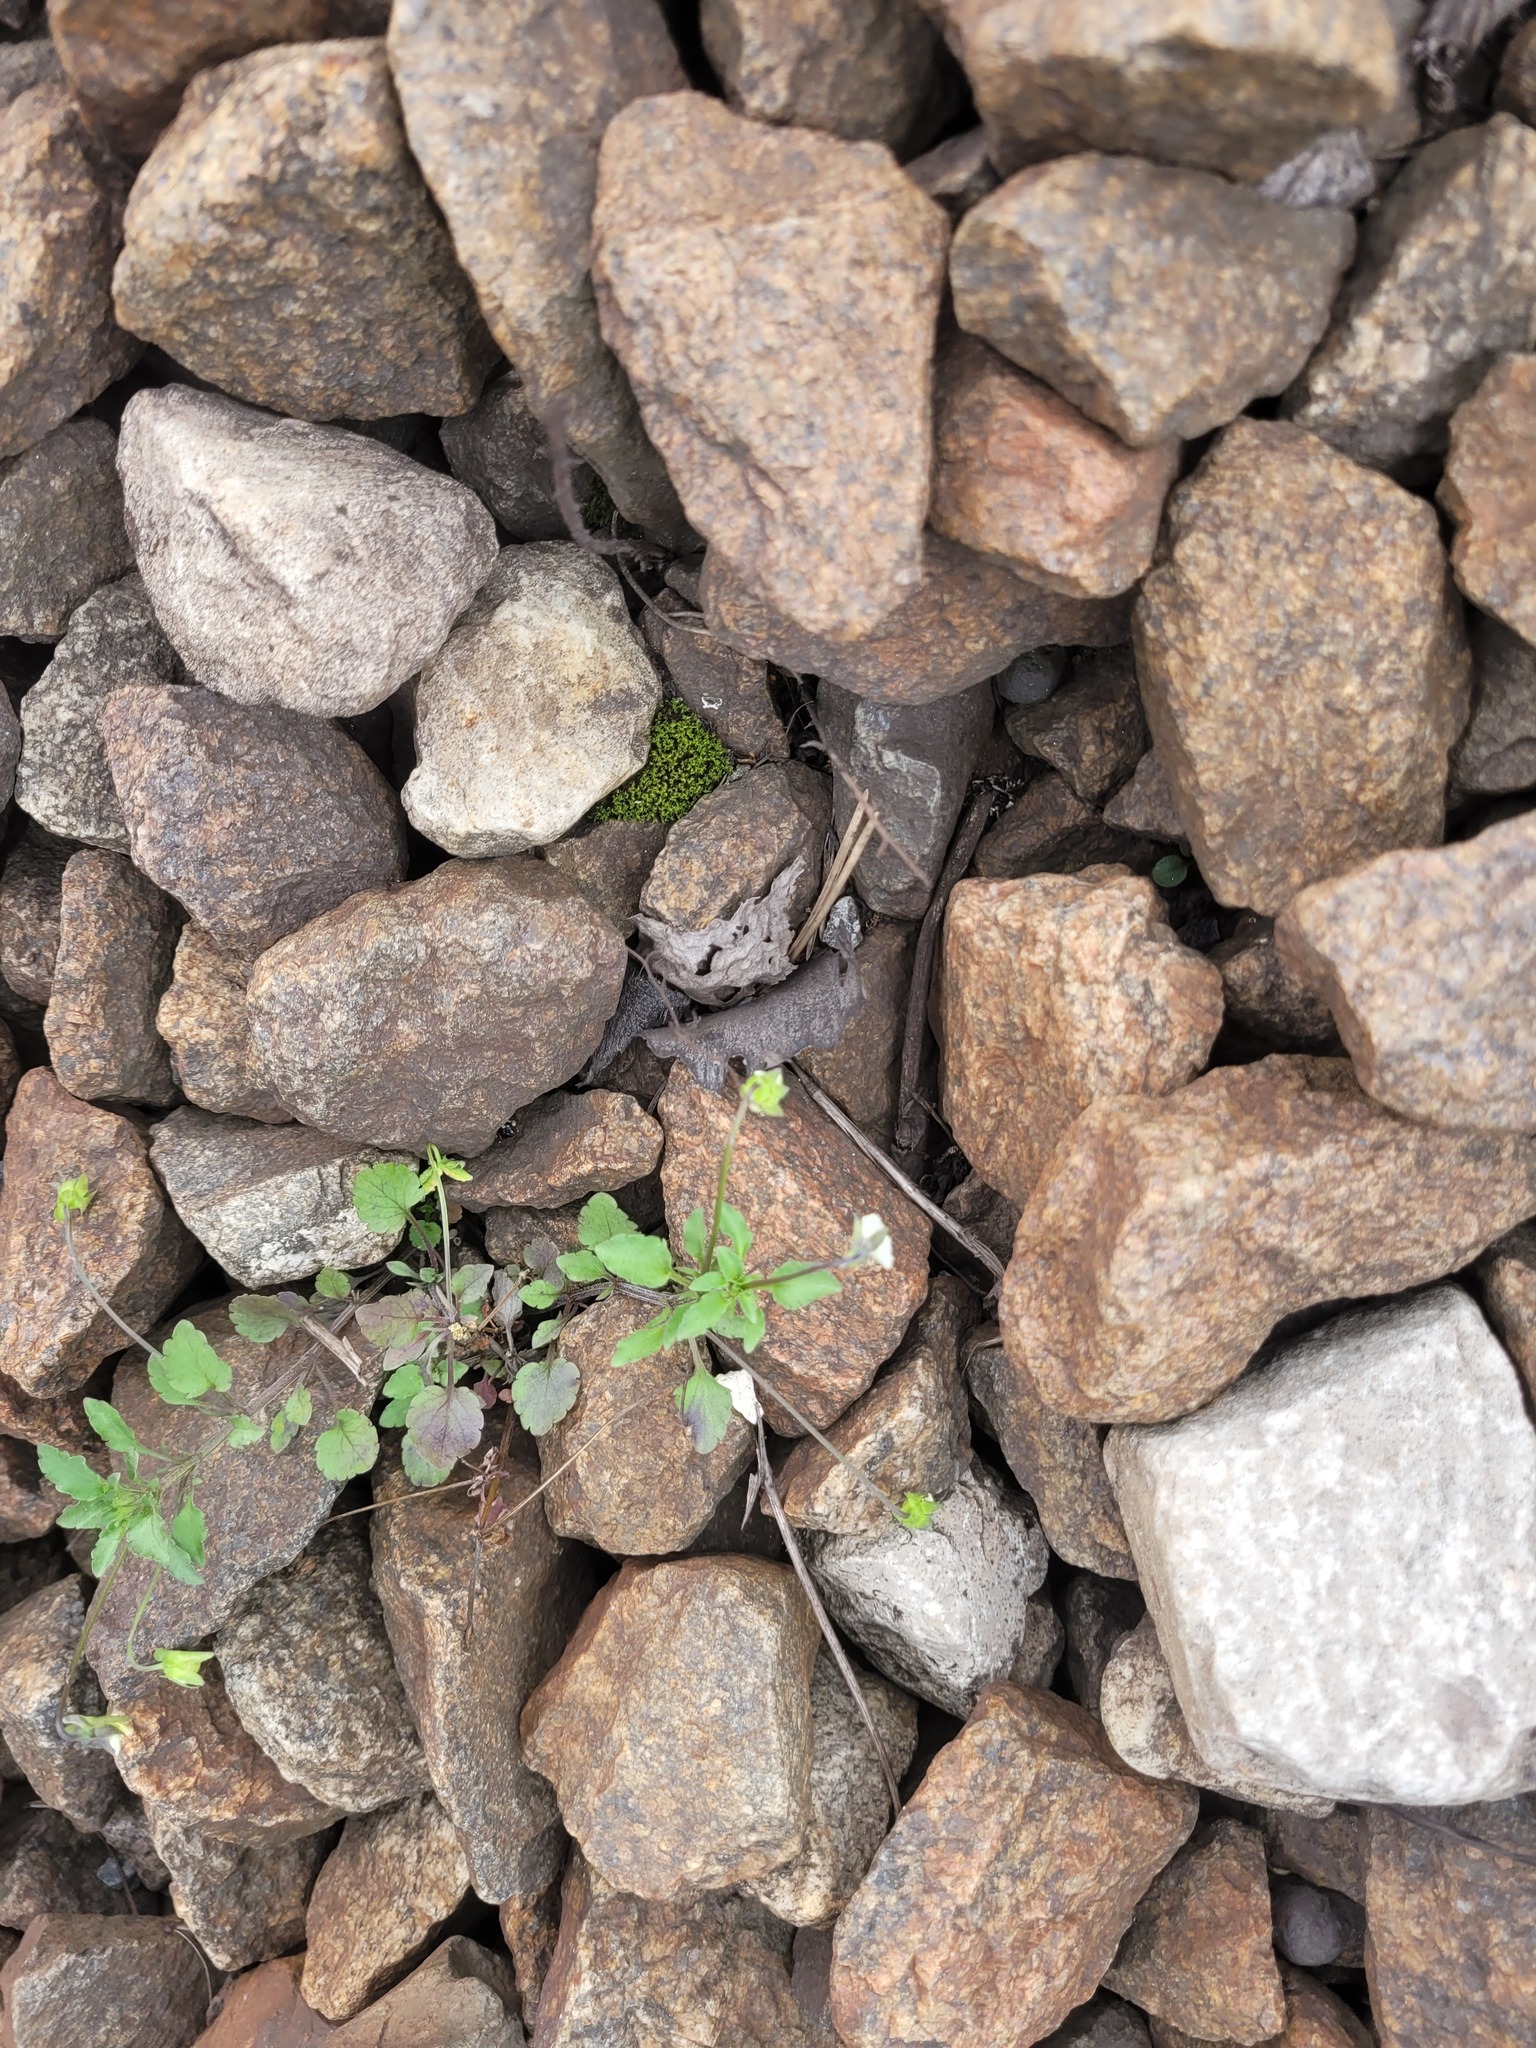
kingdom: Plantae
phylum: Tracheophyta
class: Magnoliopsida
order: Malpighiales
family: Violaceae
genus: Viola
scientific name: Viola arvensis
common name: Field pansy
